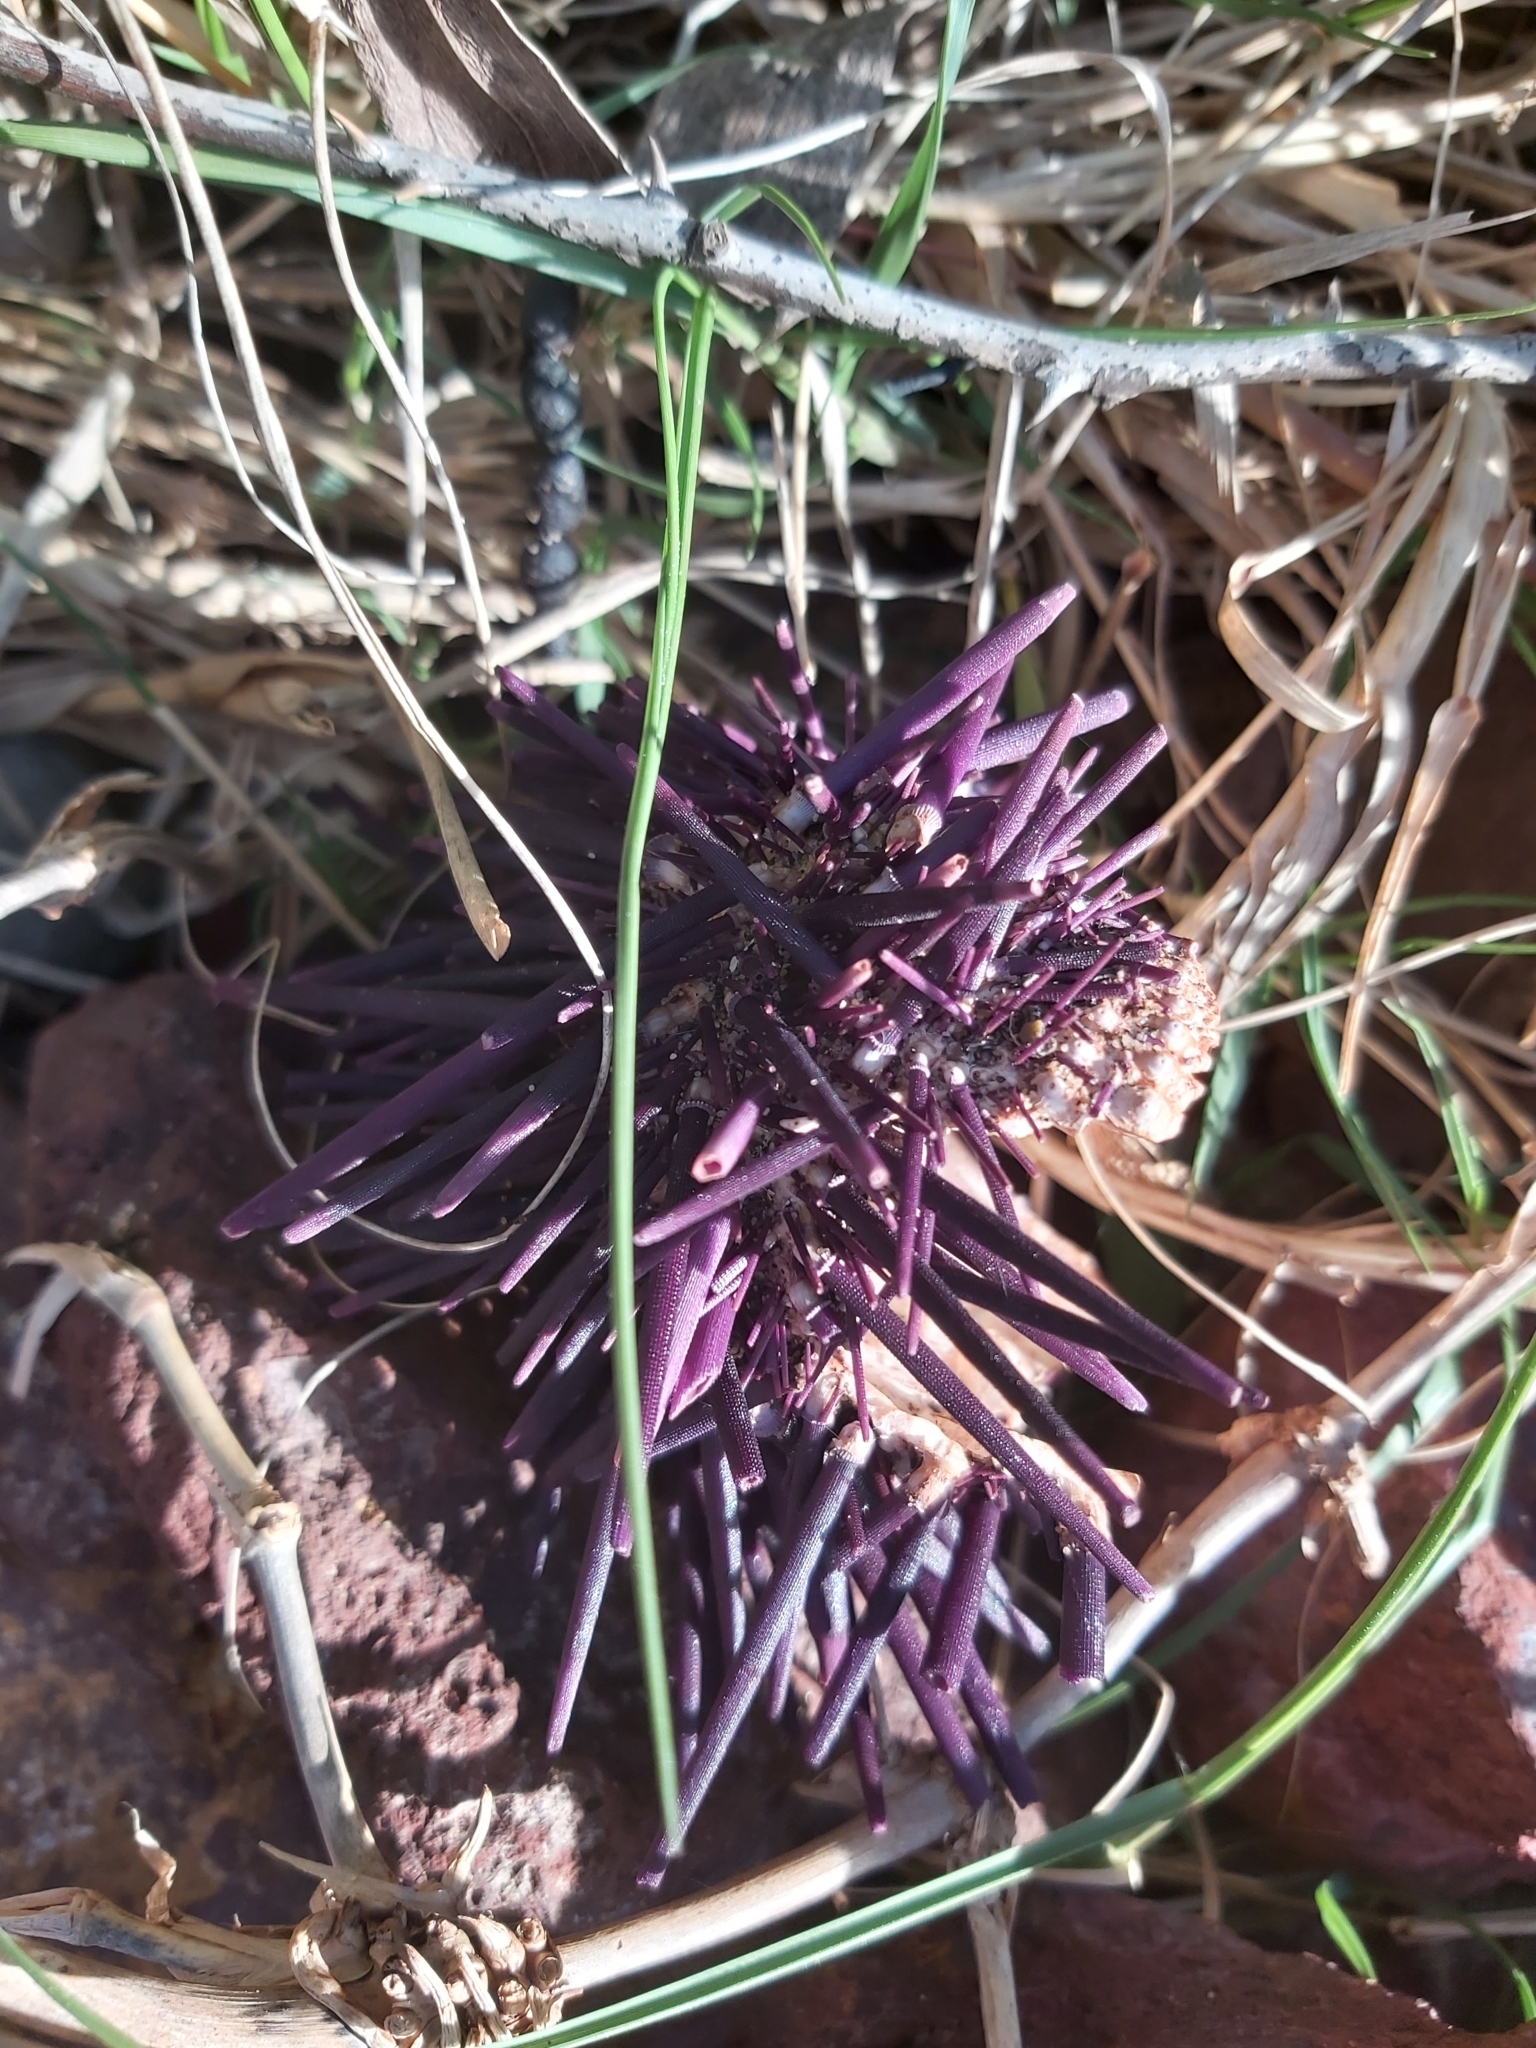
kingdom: Animalia
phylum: Echinodermata
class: Echinoidea
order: Camarodonta
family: Echinometridae
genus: Heliocidaris
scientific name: Heliocidaris erythrogramma
